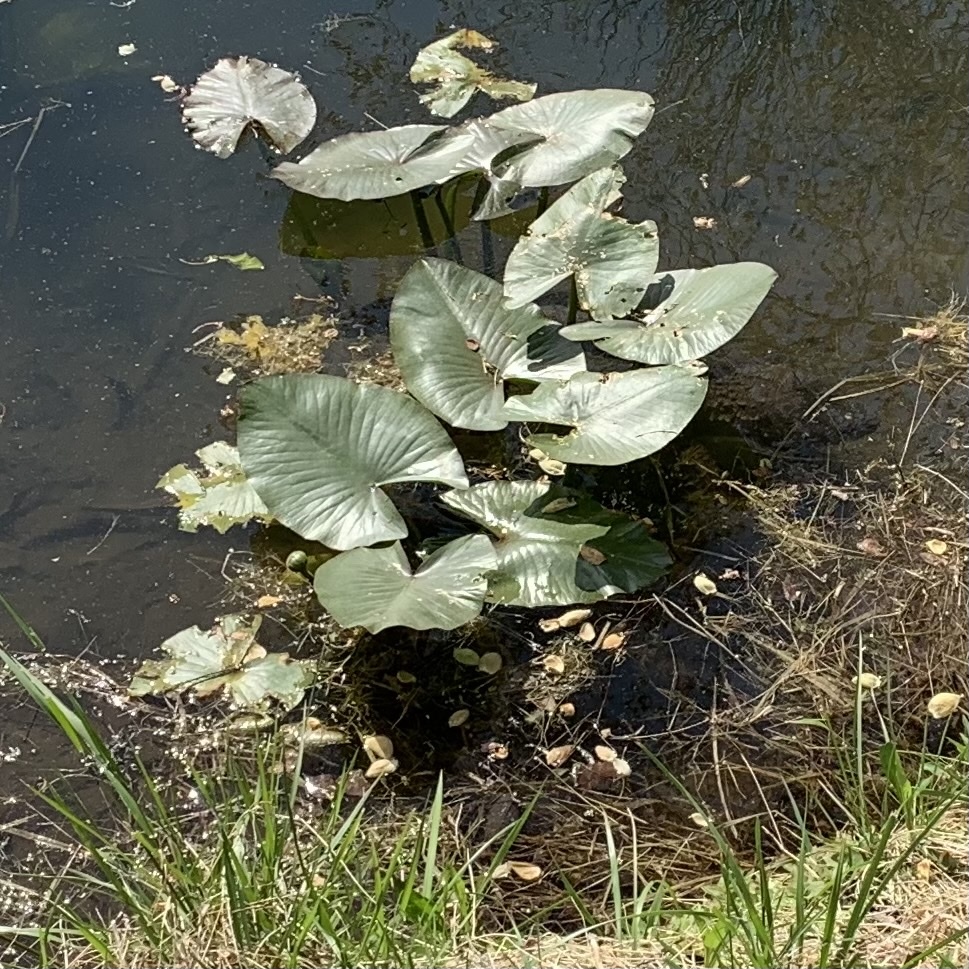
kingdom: Animalia
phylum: Chordata
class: Testudines
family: Chelydridae
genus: Chelydra
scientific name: Chelydra serpentina
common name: Common snapping turtle
